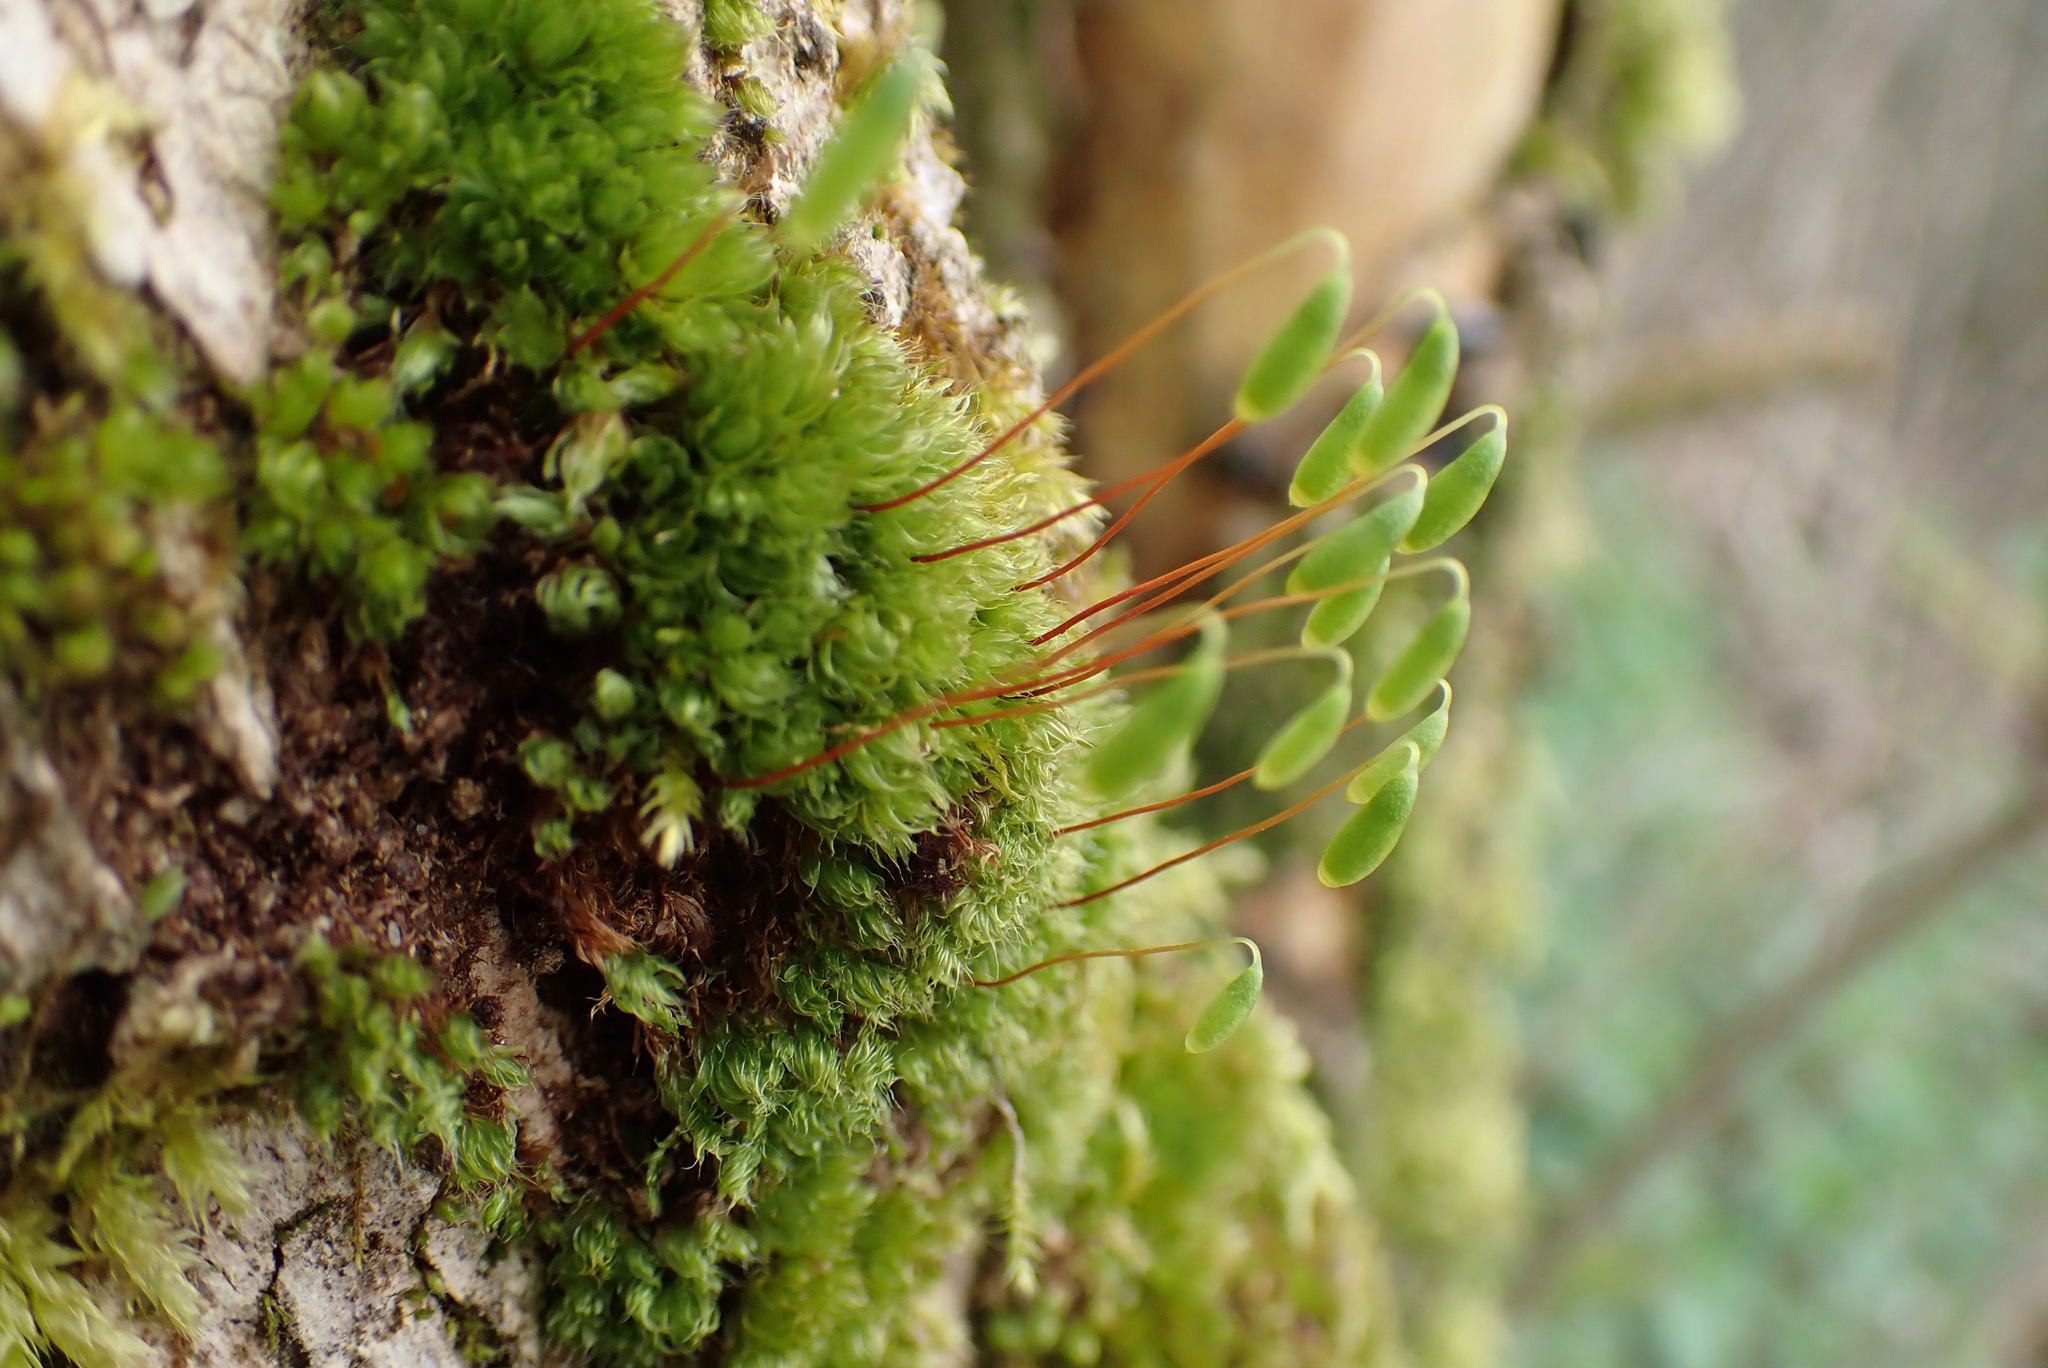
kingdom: Plantae
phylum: Bryophyta
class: Bryopsida
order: Bryales
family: Bryaceae
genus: Rosulabryum
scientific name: Rosulabryum capillare
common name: Capillary thread-moss
